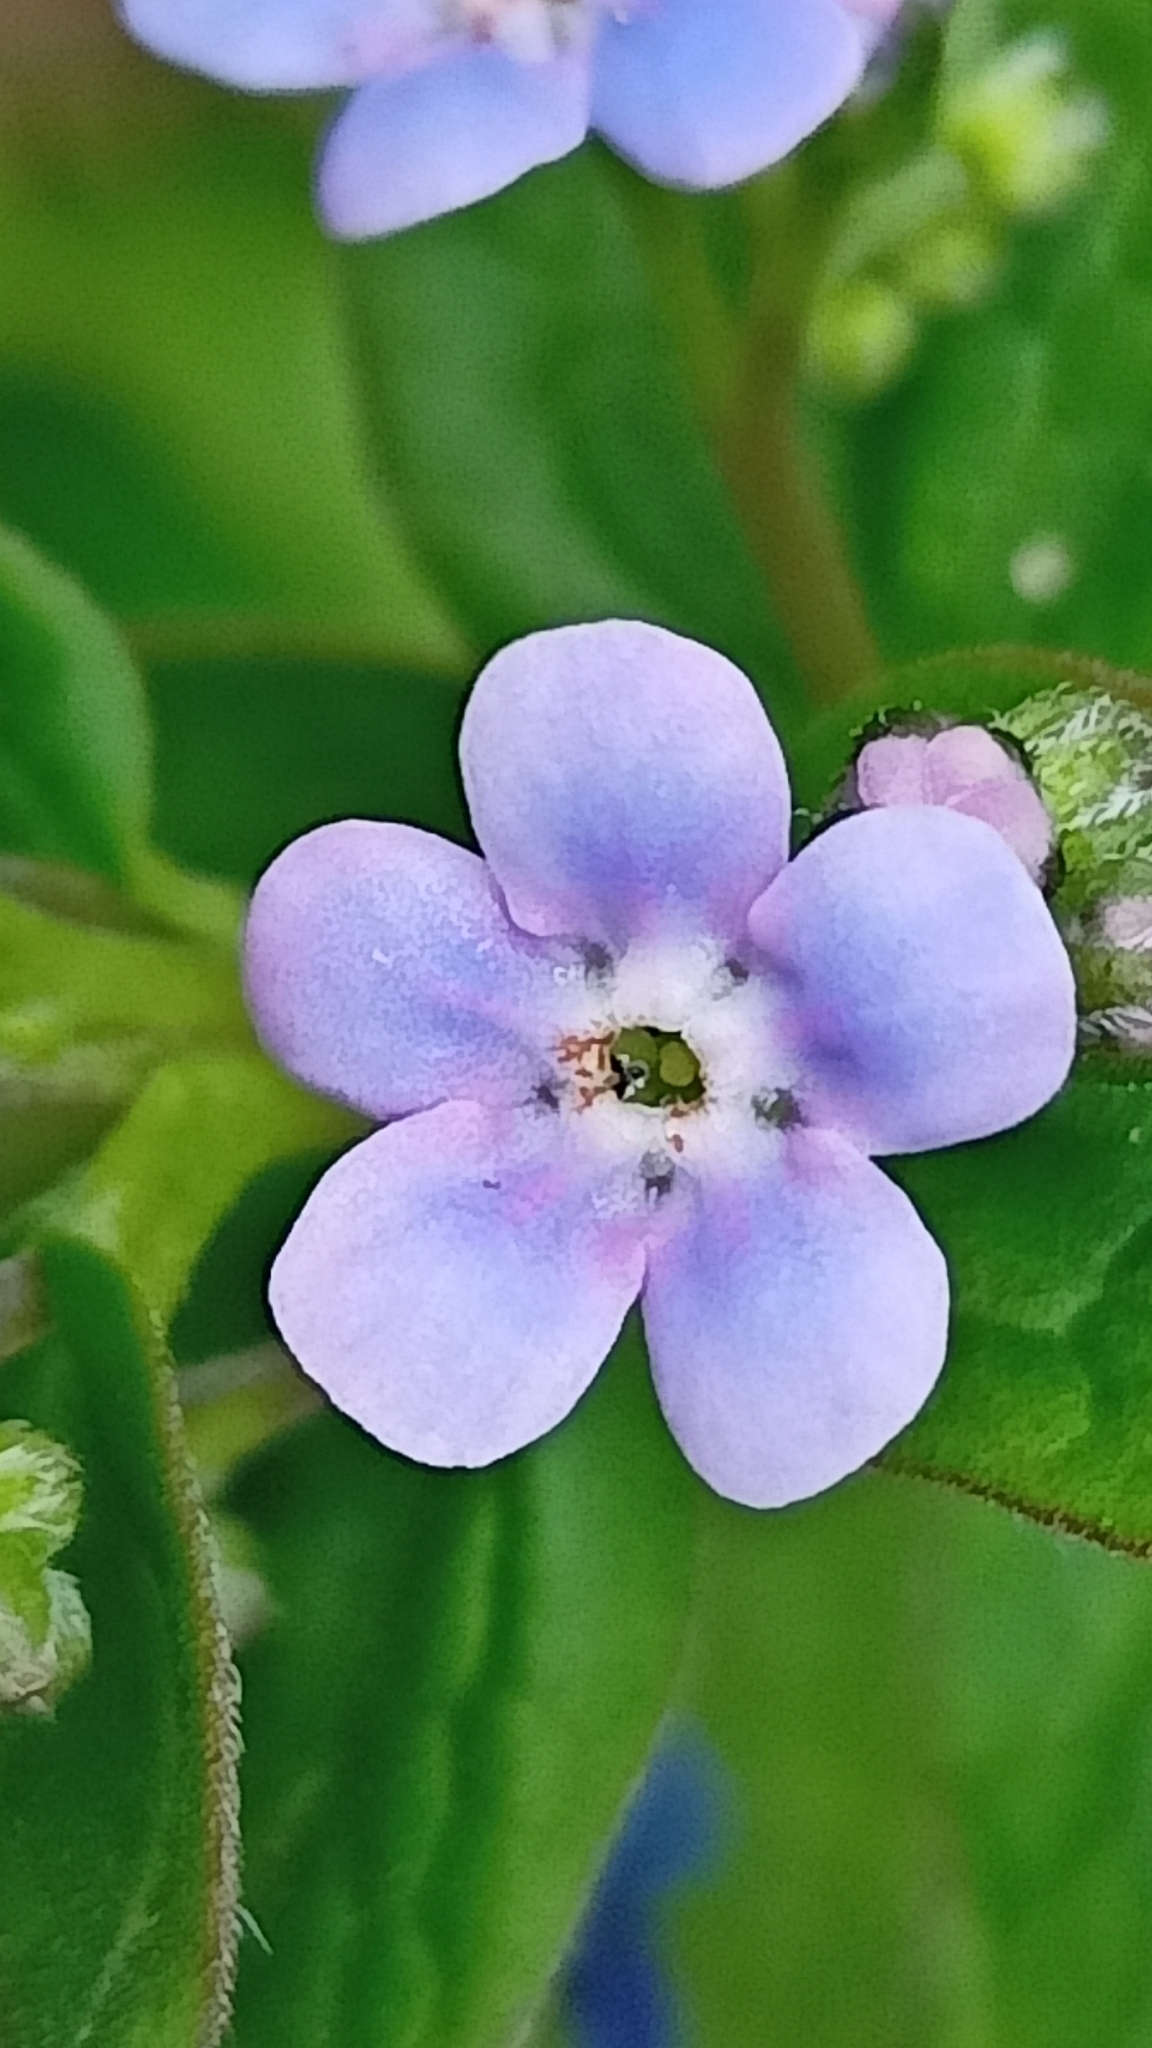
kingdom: Plantae
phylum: Tracheophyta
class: Magnoliopsida
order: Boraginales
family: Boraginaceae
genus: Brunnera
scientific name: Brunnera sibirica
